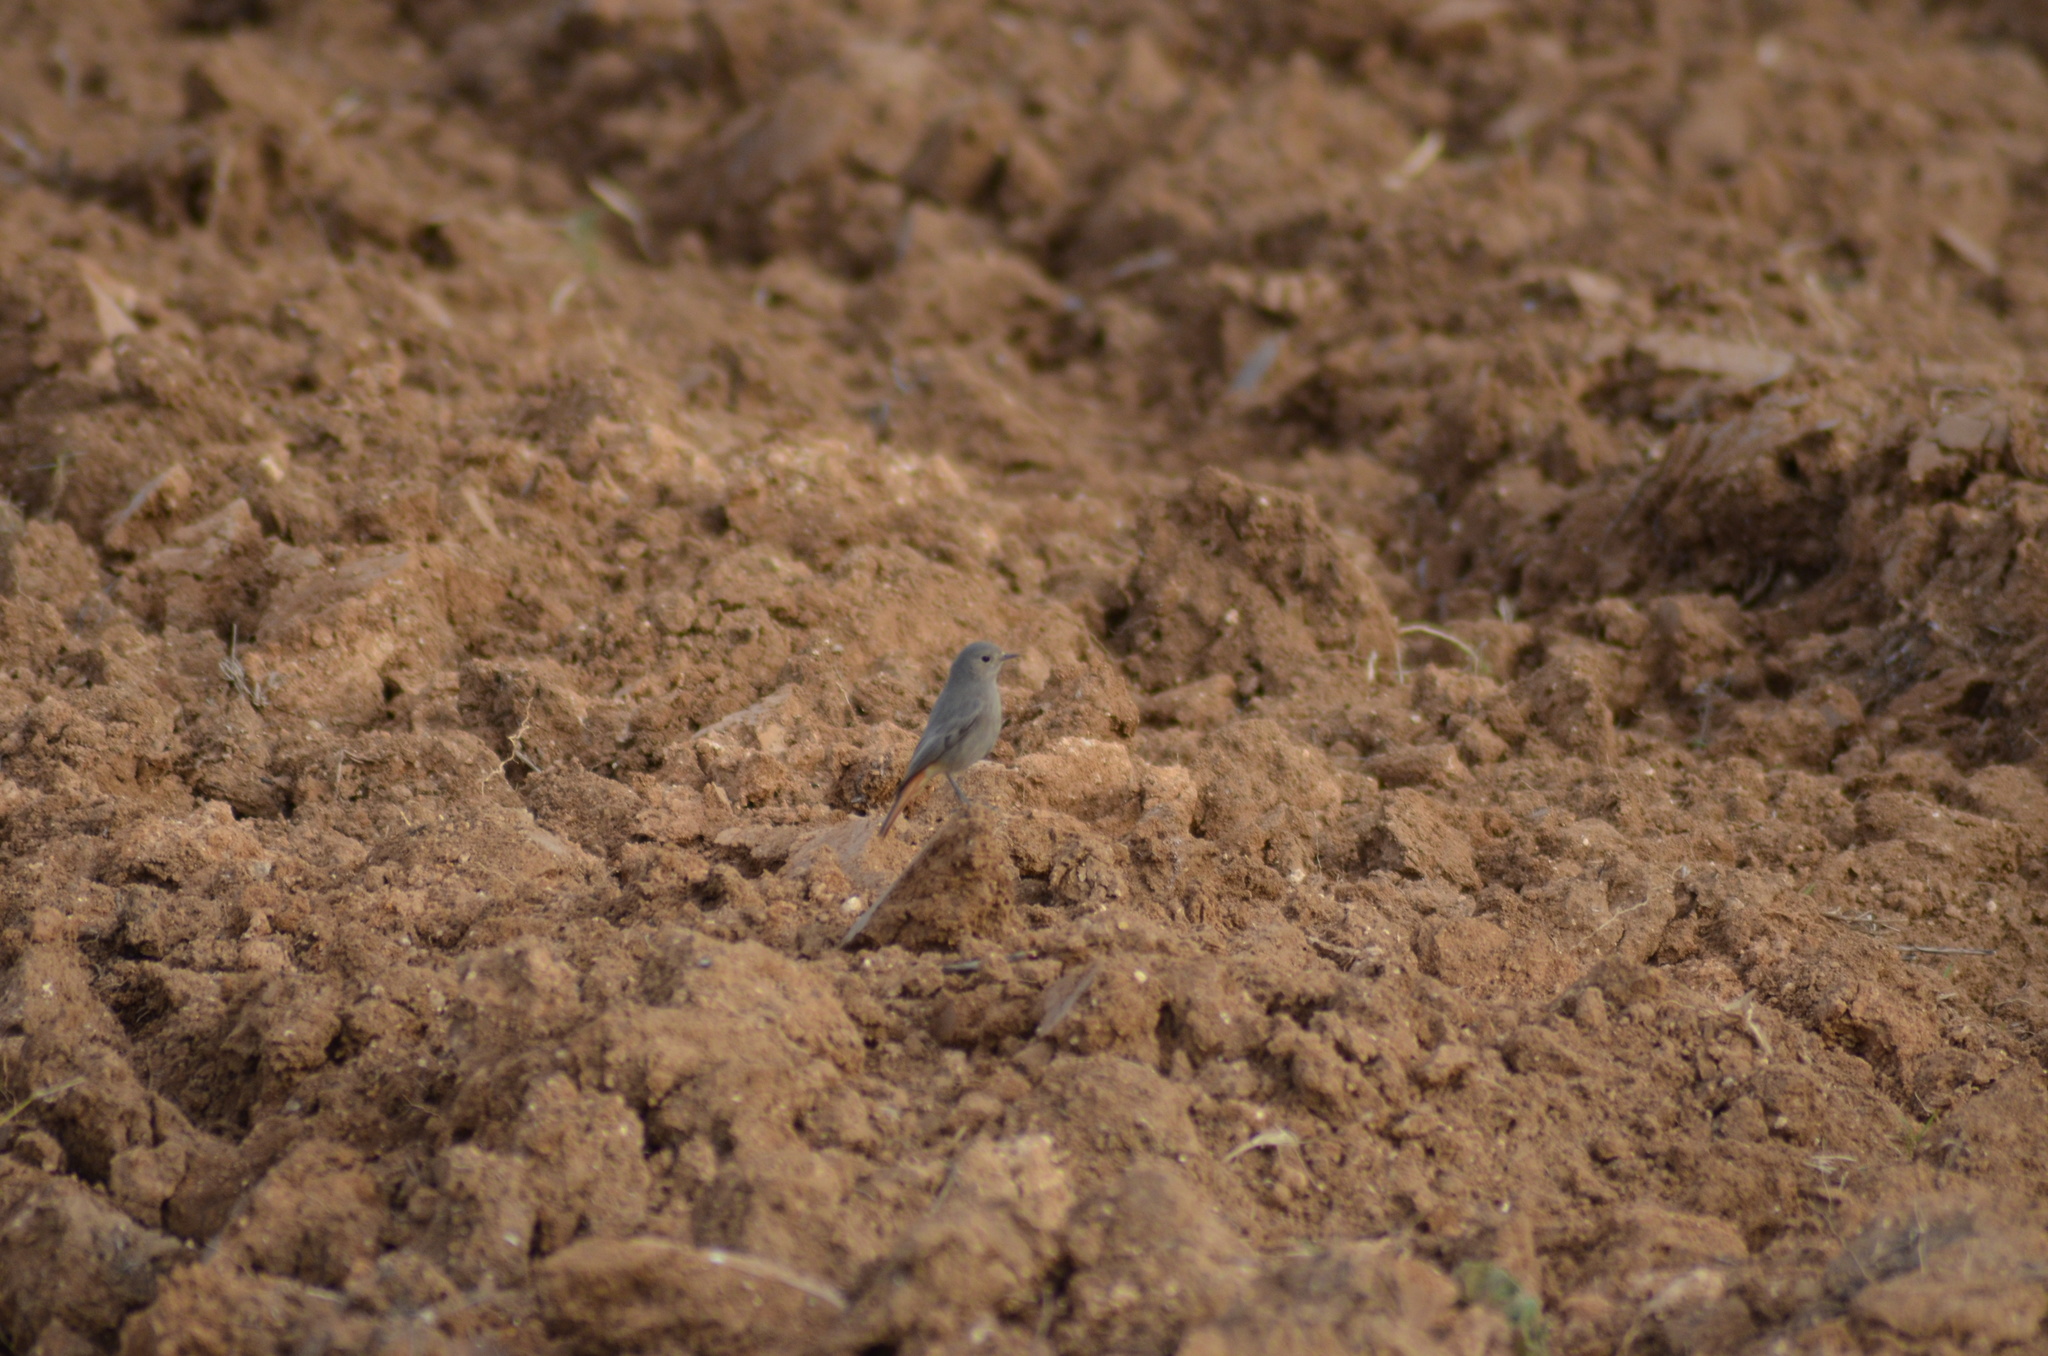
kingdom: Animalia
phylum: Chordata
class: Aves
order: Passeriformes
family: Muscicapidae
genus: Phoenicurus
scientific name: Phoenicurus ochruros
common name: Black redstart
